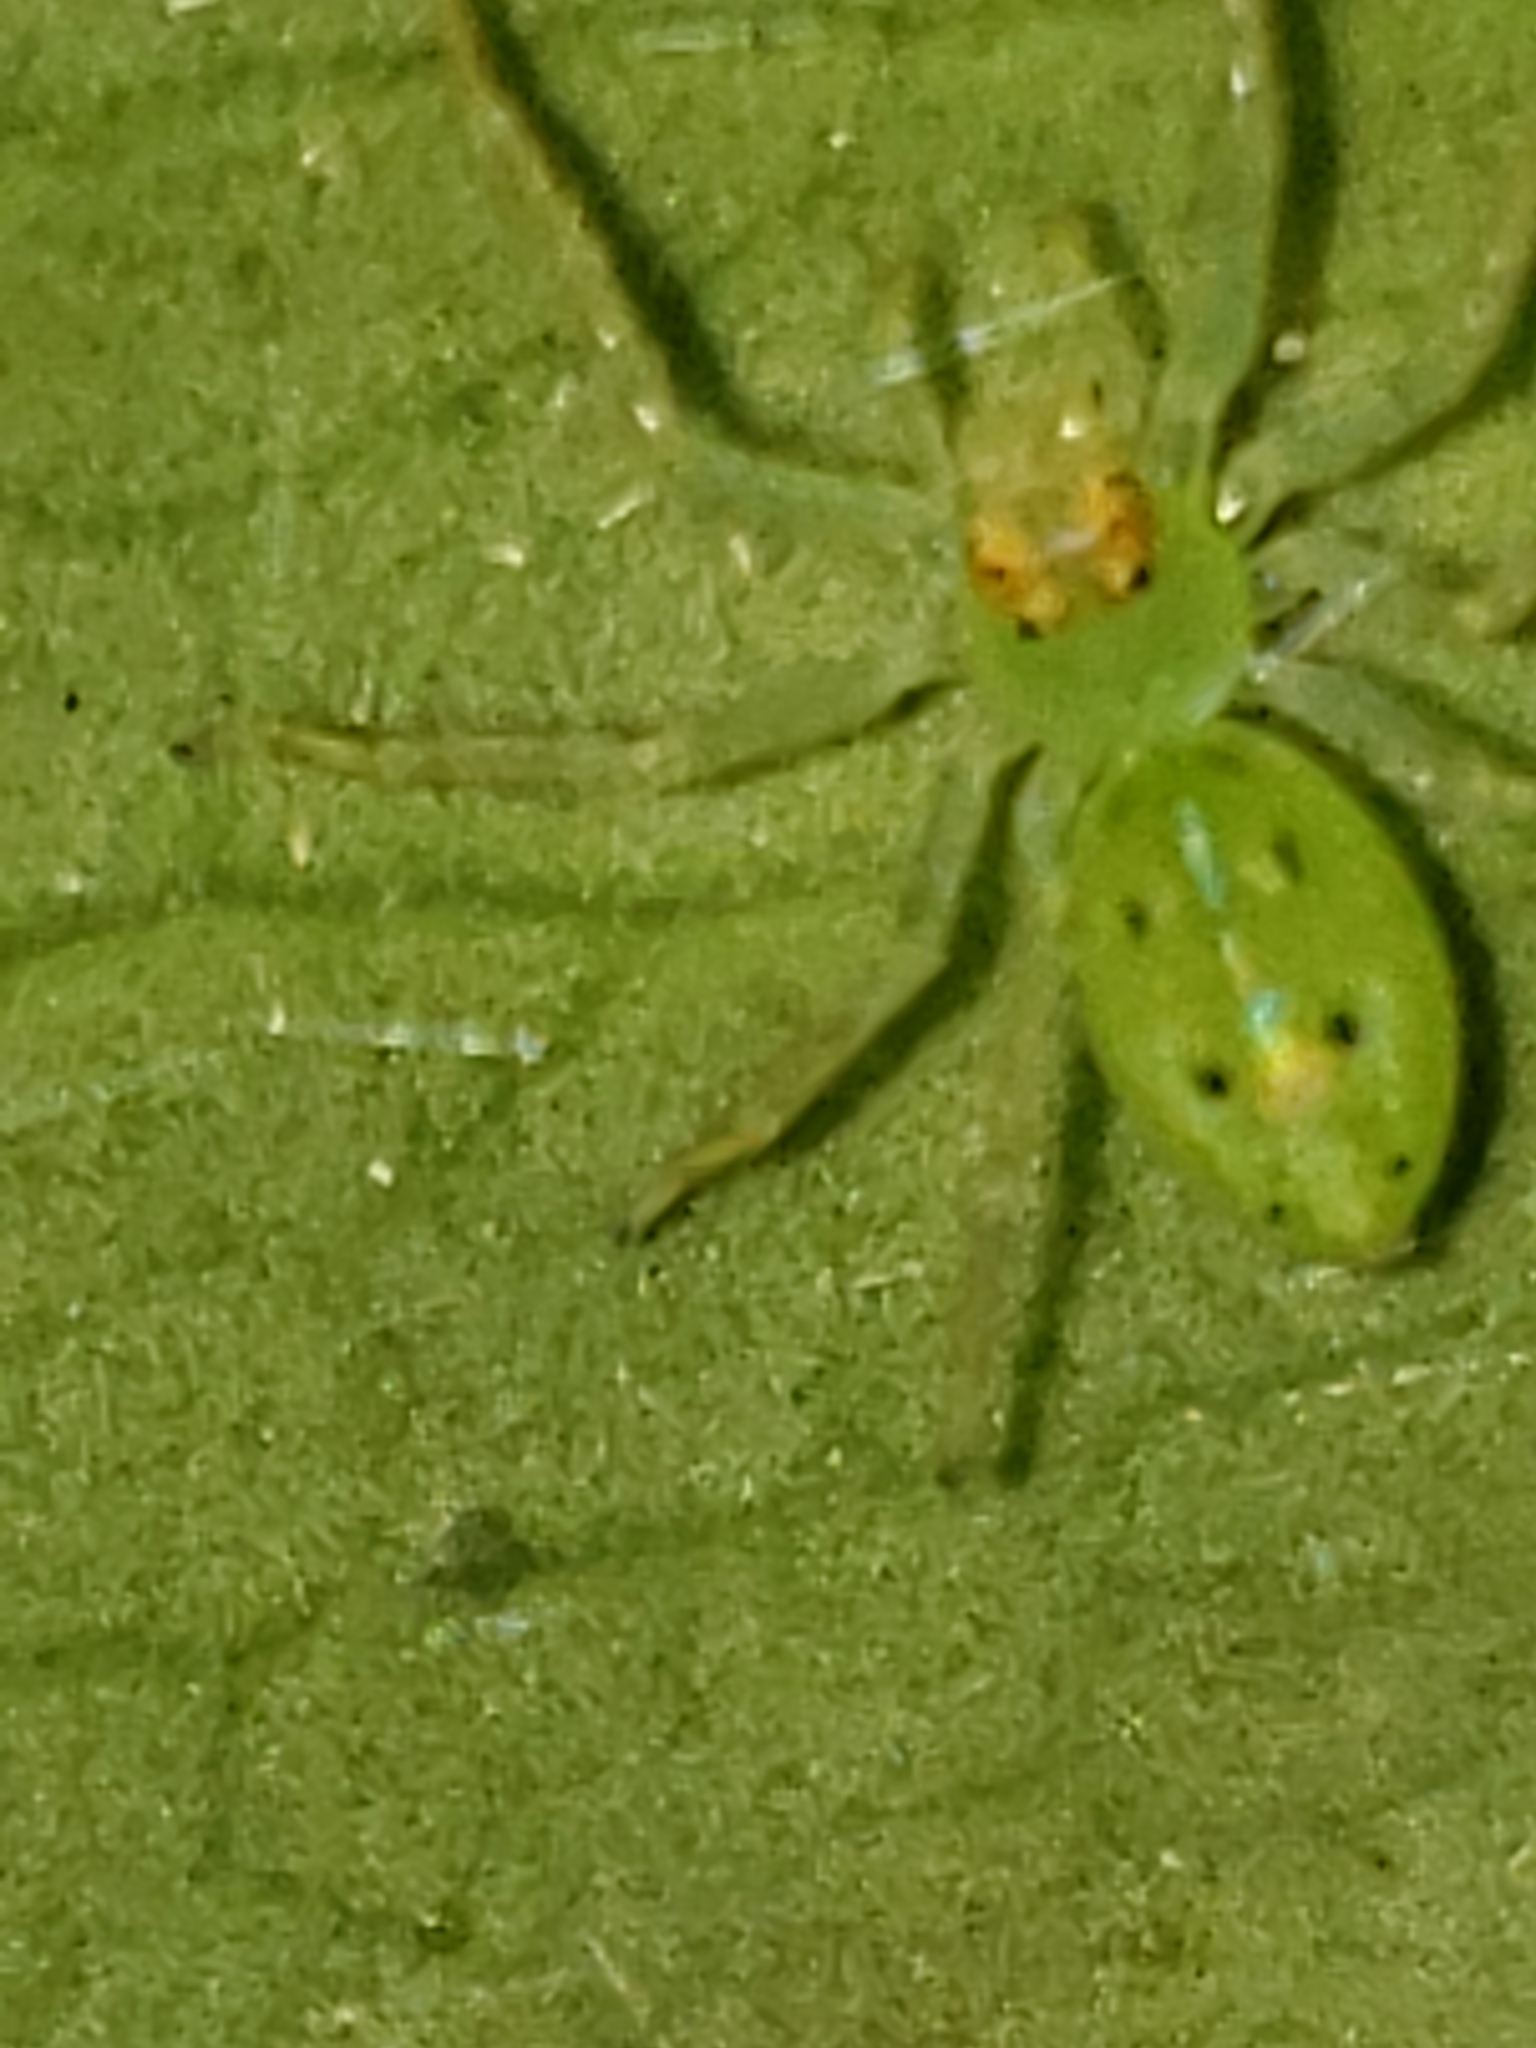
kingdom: Animalia
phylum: Arthropoda
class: Arachnida
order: Araneae
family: Salticidae
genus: Lyssomanes
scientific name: Lyssomanes viridis
